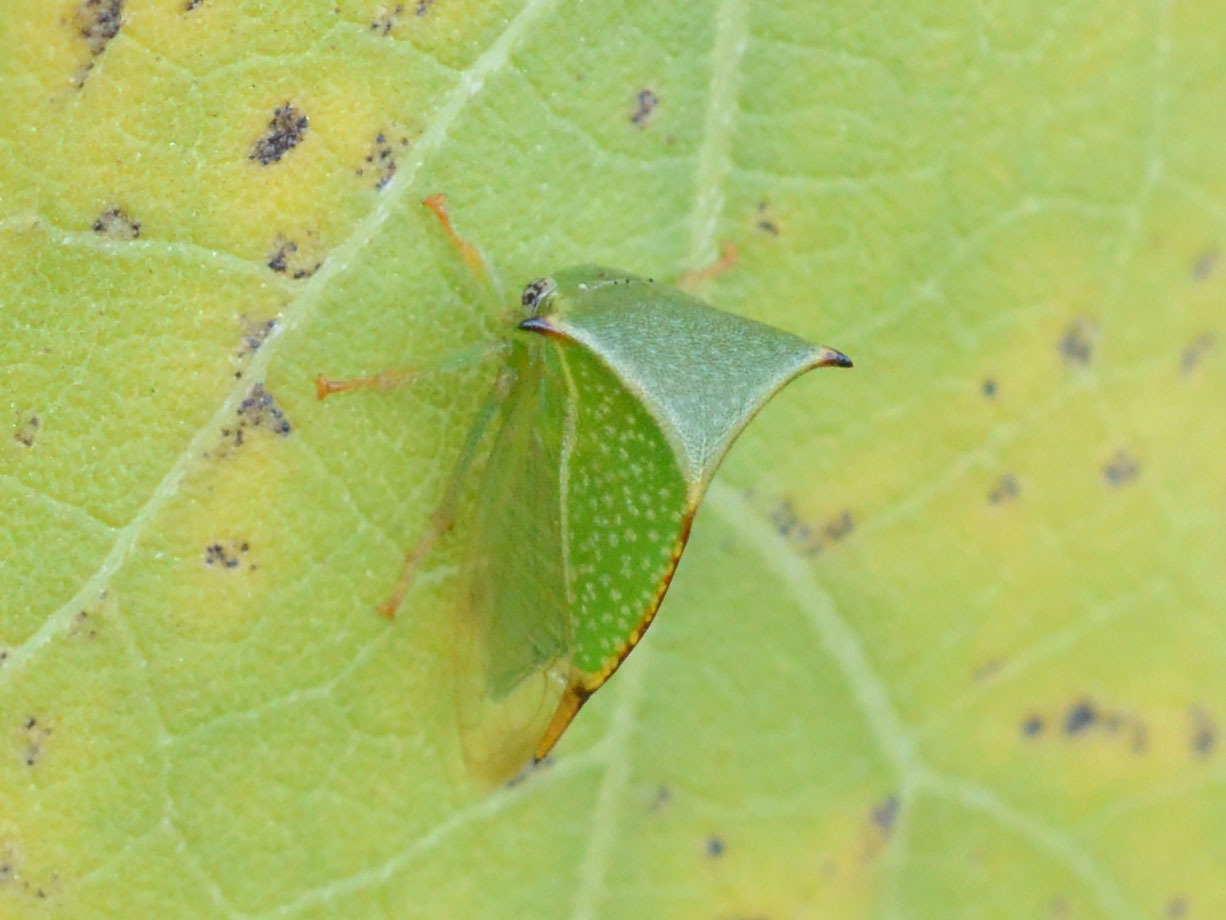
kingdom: Animalia
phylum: Arthropoda
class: Insecta
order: Hemiptera
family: Membracidae
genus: Stictocephala
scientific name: Stictocephala bisonia
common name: American buffalo treehopper
